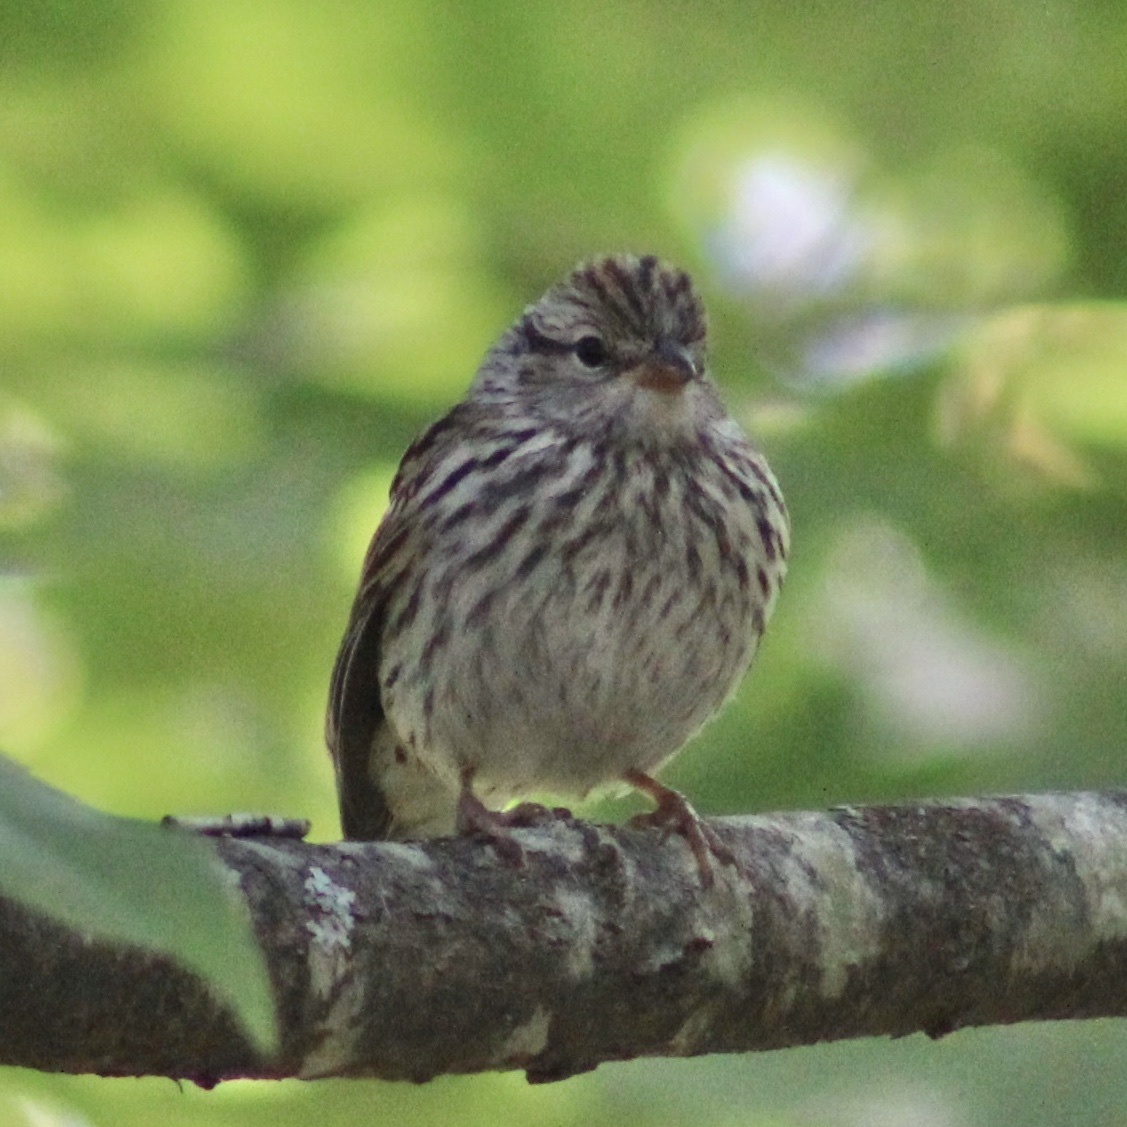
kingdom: Animalia
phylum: Chordata
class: Aves
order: Passeriformes
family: Passerellidae
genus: Spizella
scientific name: Spizella passerina
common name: Chipping sparrow
